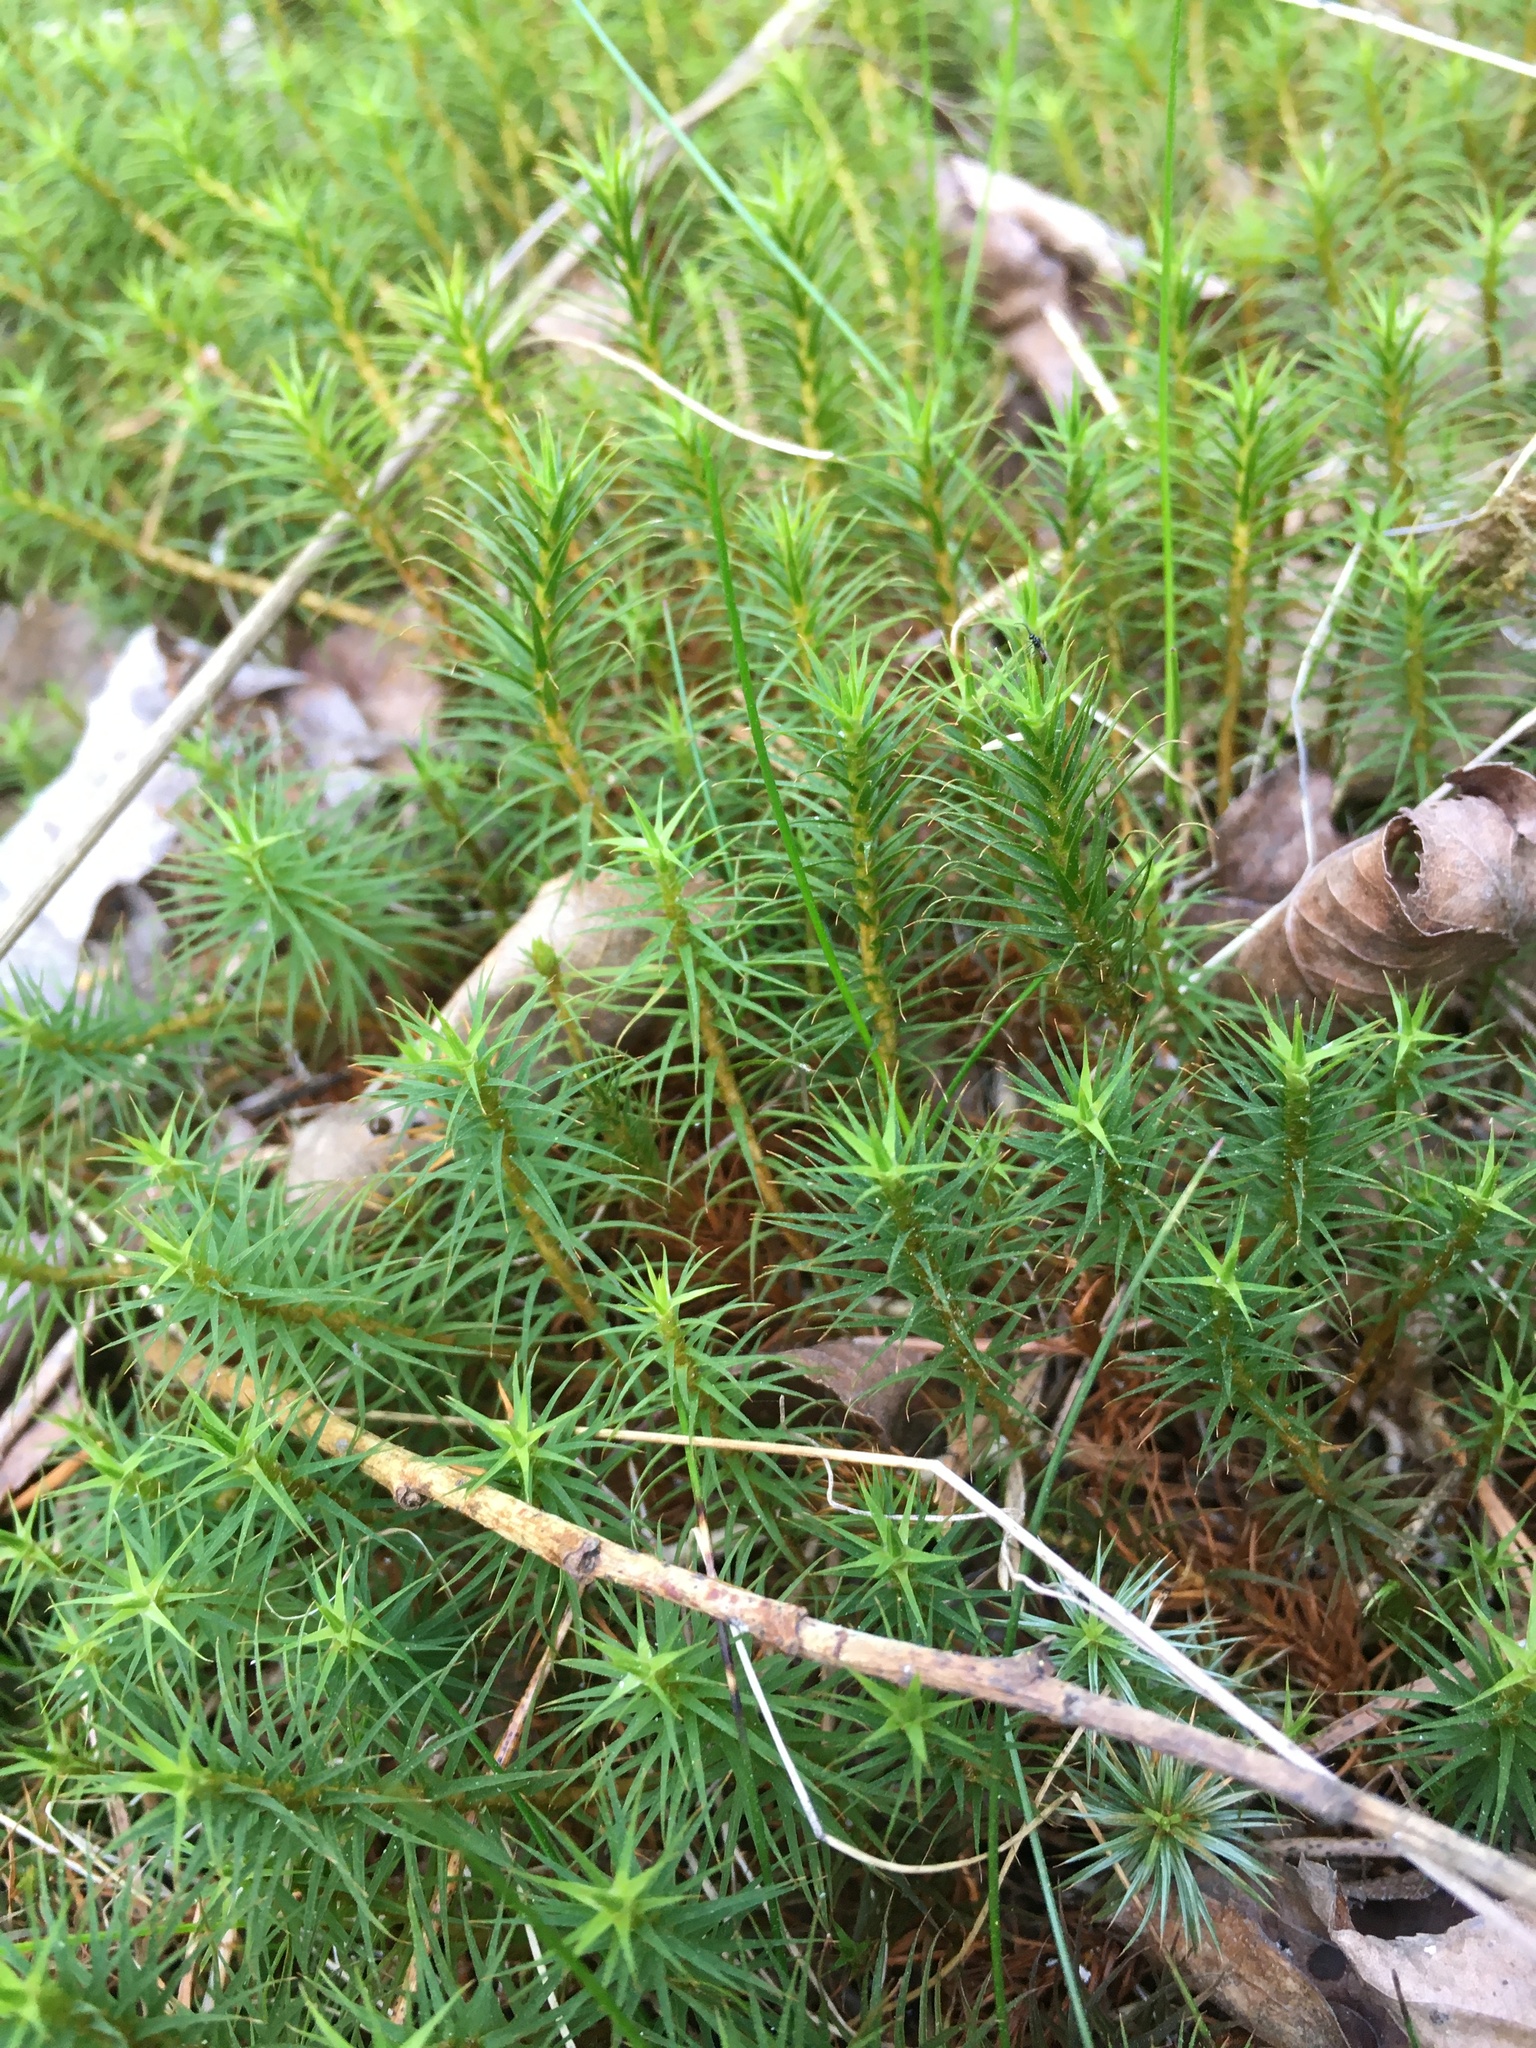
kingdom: Plantae
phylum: Bryophyta
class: Polytrichopsida
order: Polytrichales
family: Polytrichaceae
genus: Polytrichum
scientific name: Polytrichum commune
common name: Common haircap
